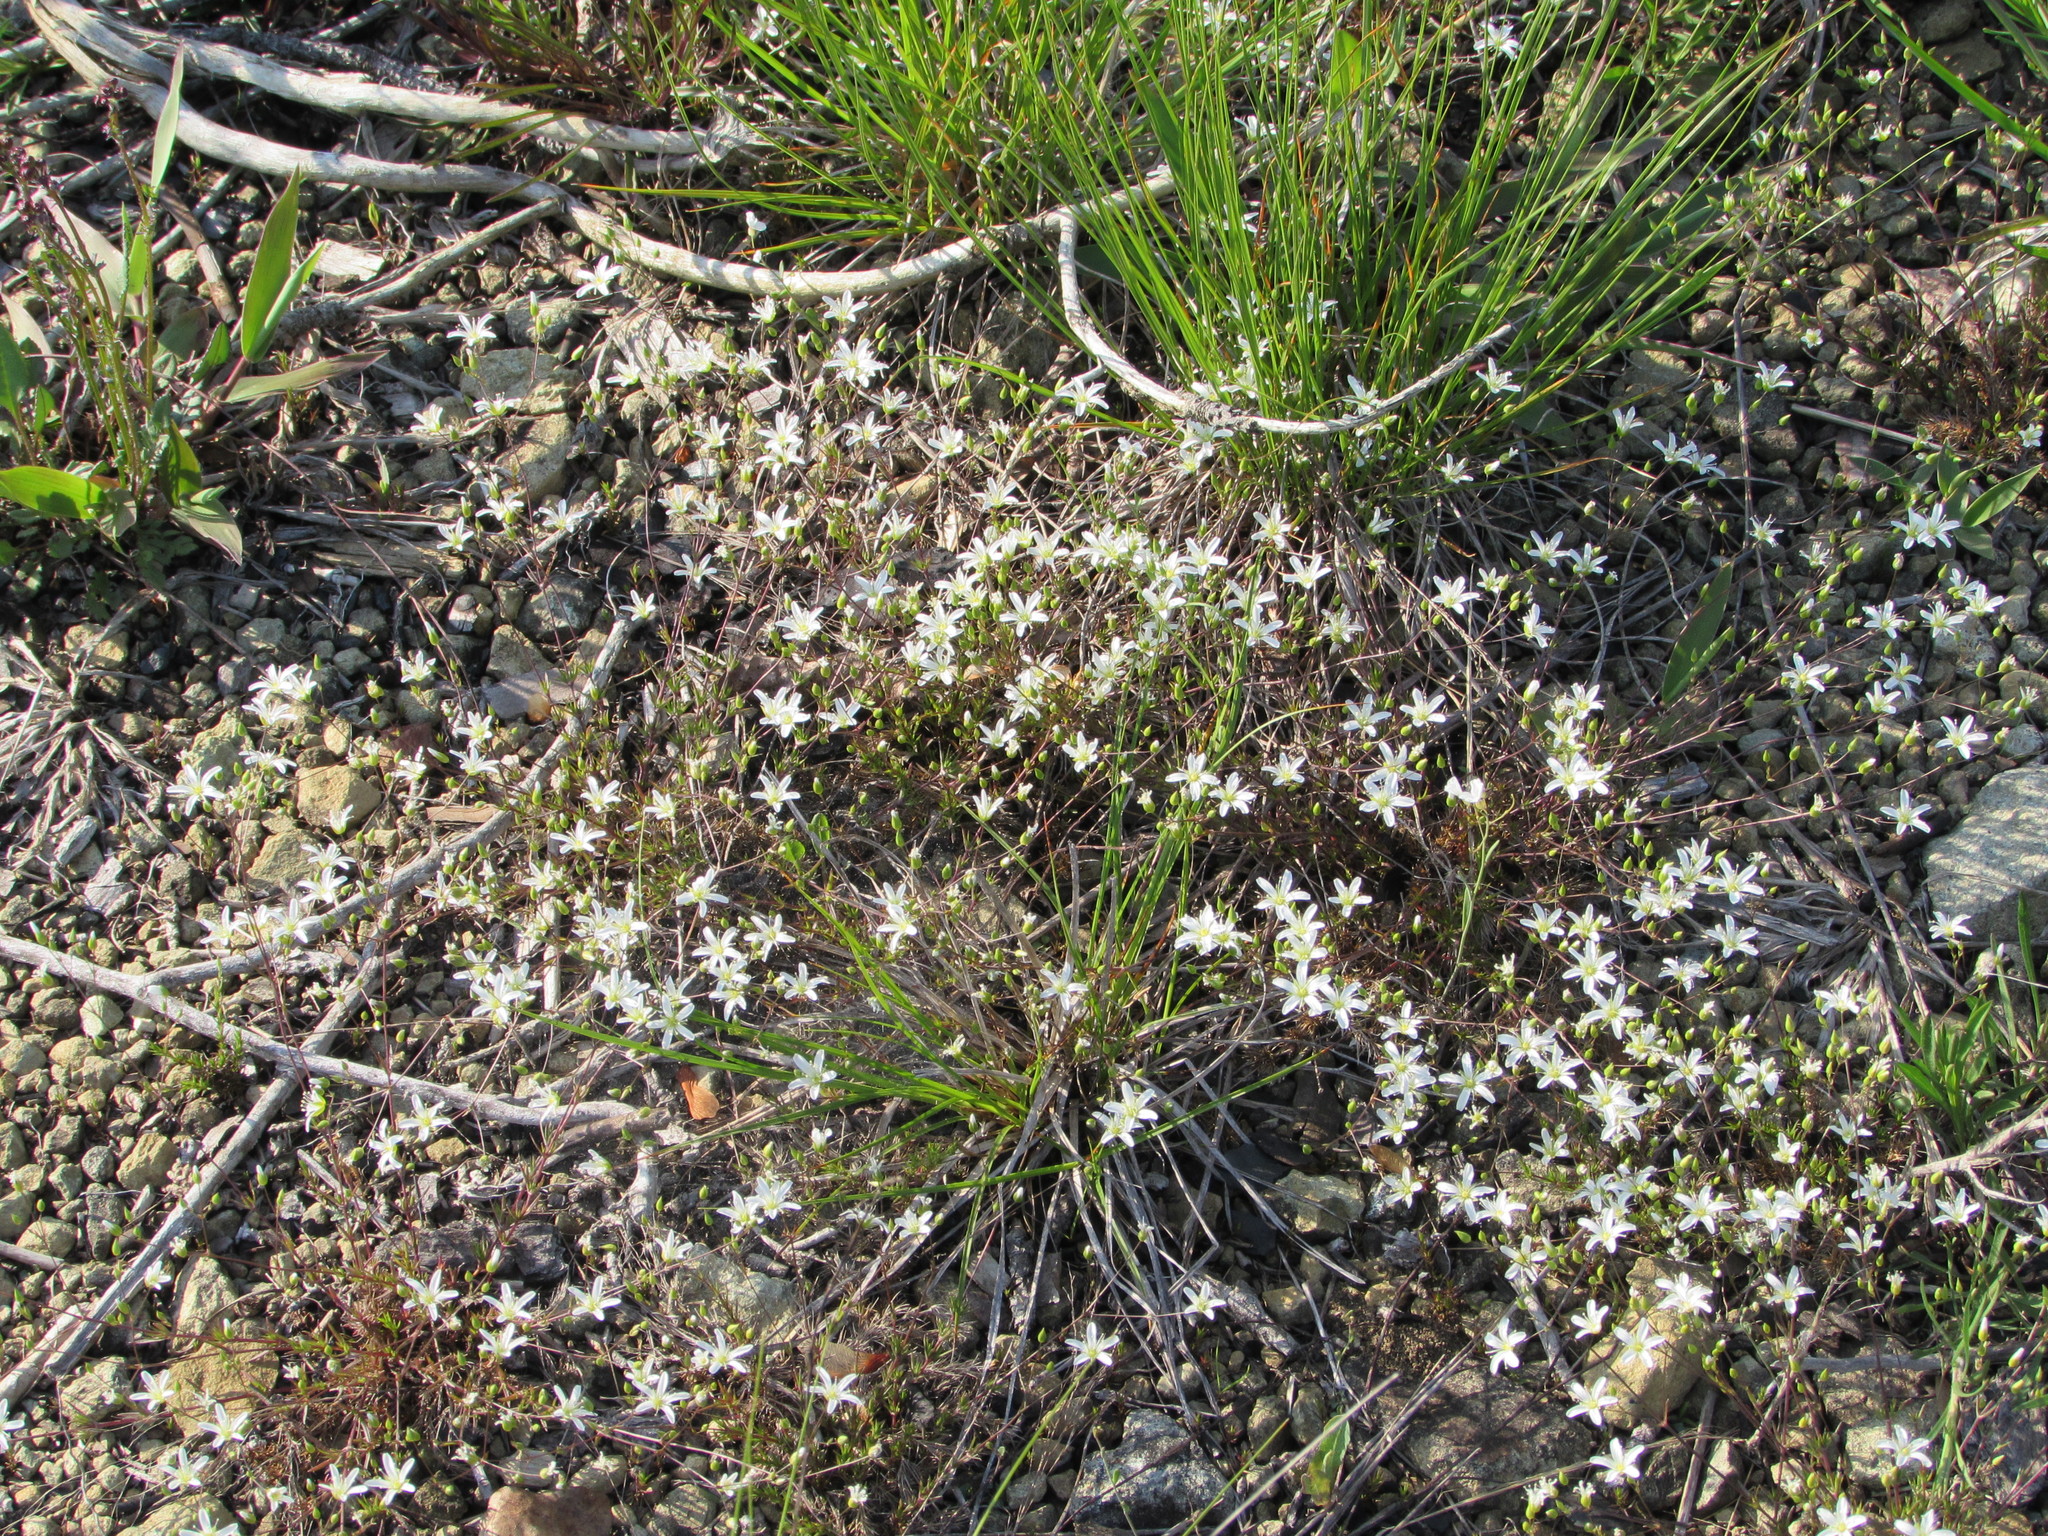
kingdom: Plantae
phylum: Tracheophyta
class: Magnoliopsida
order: Caryophyllales
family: Caryophyllaceae
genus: Sabulina
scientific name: Sabulina michauxii
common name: Michaux's stitchwort
